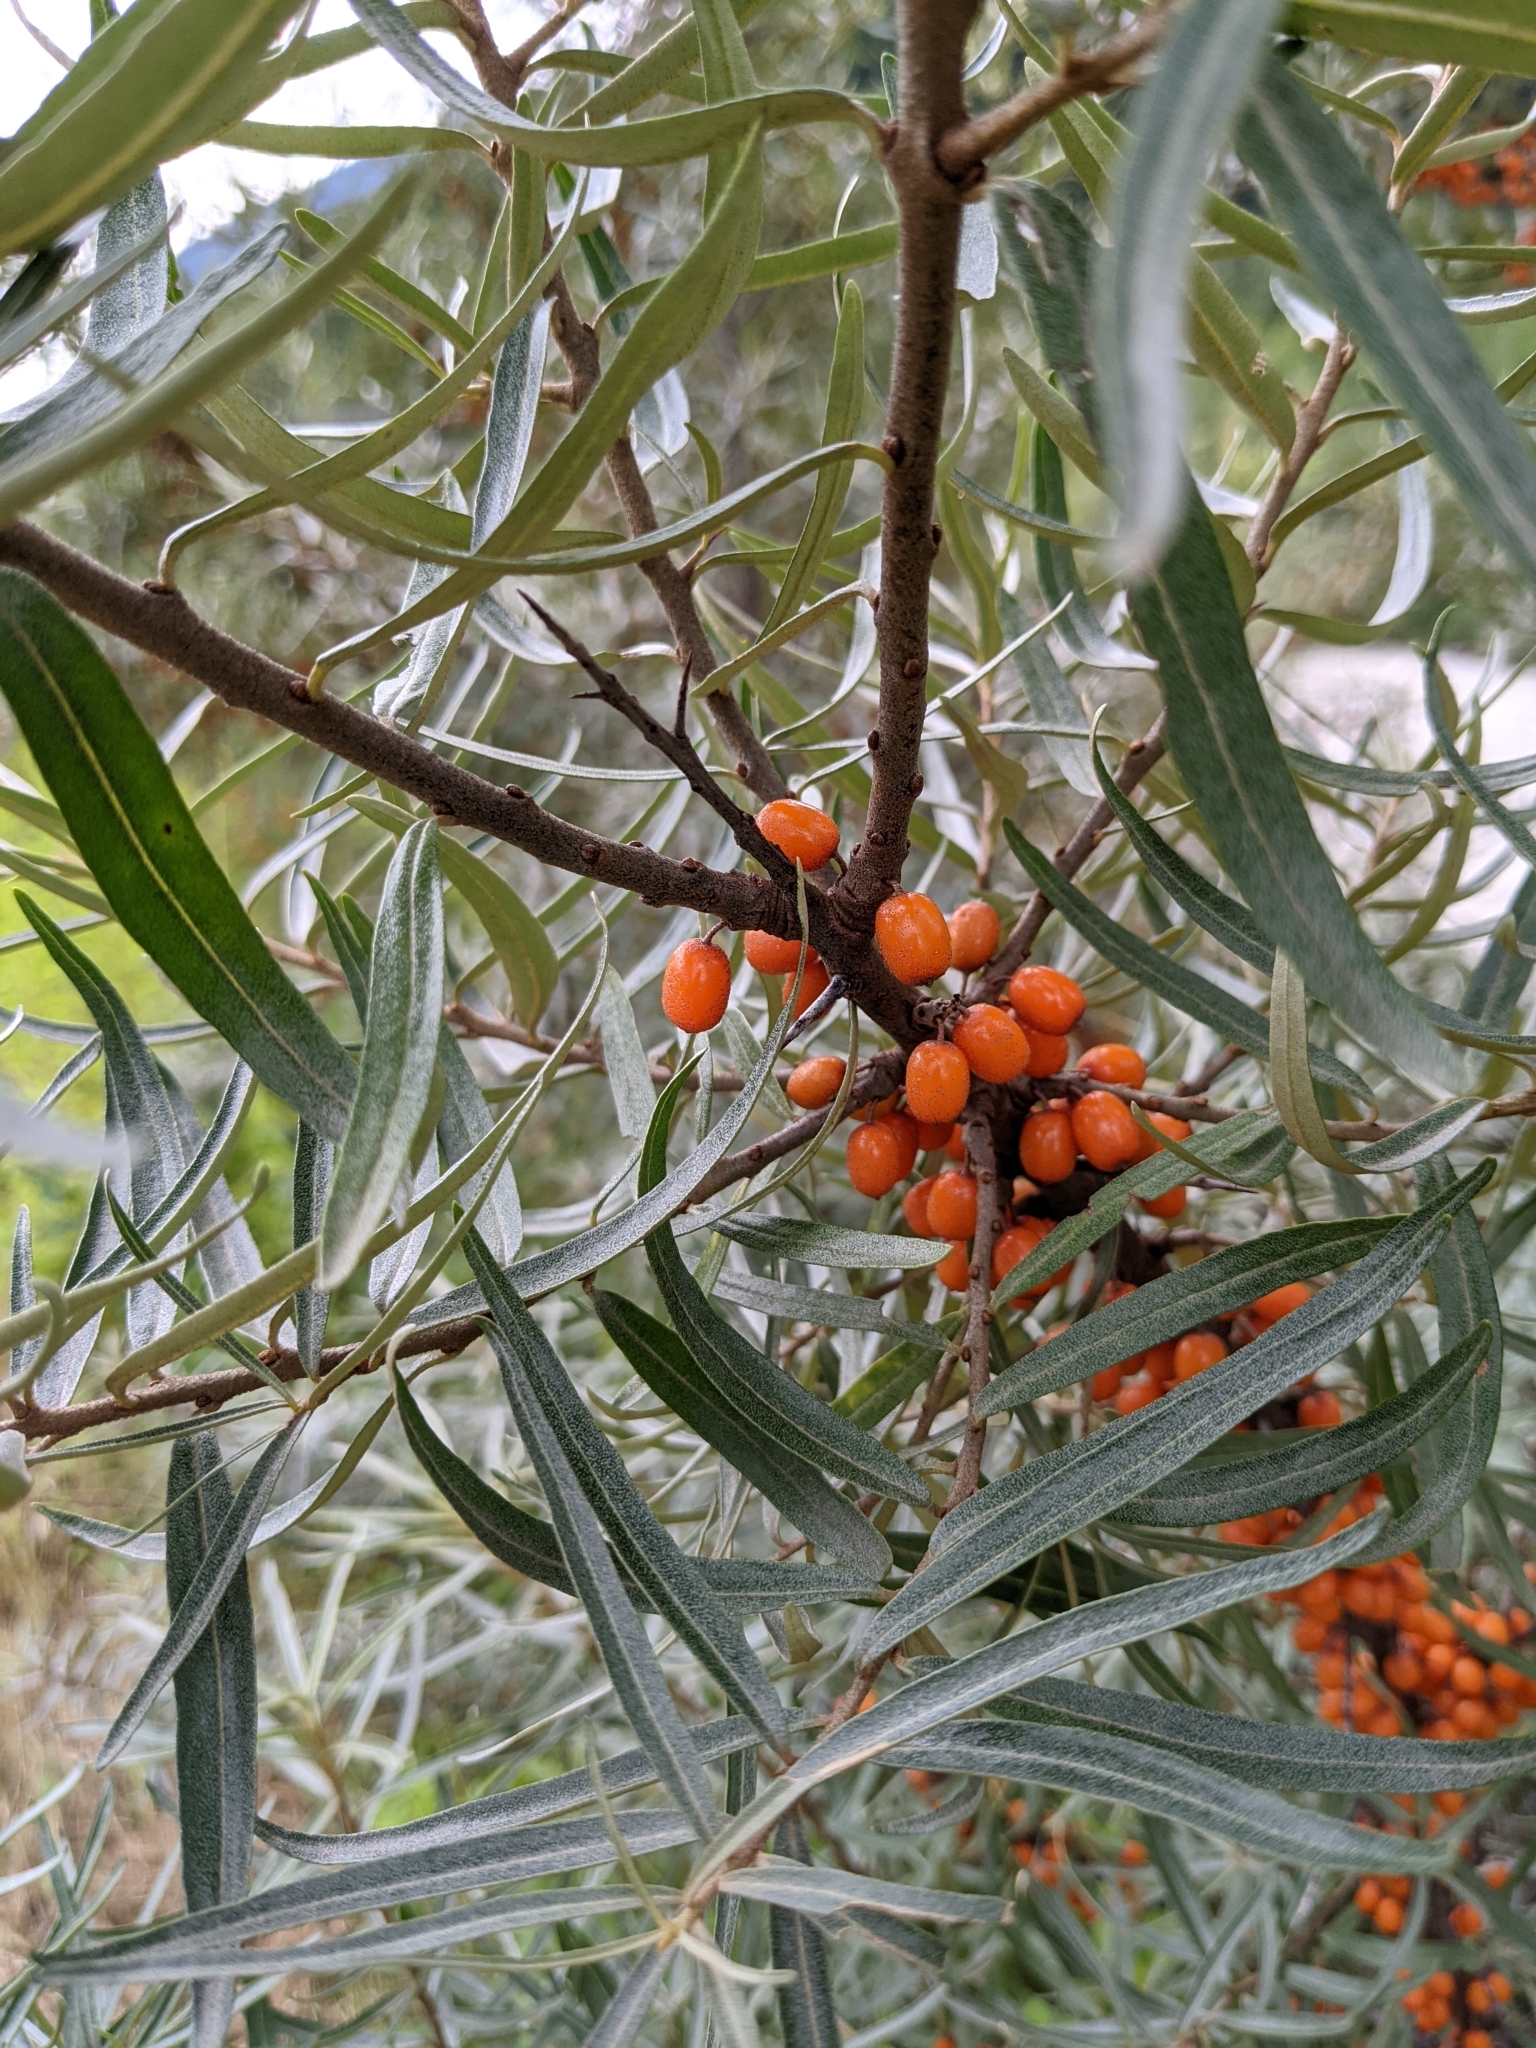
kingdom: Plantae
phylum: Tracheophyta
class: Magnoliopsida
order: Rosales
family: Elaeagnaceae
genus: Hippophae
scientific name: Hippophae rhamnoides
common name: Sea-buckthorn
